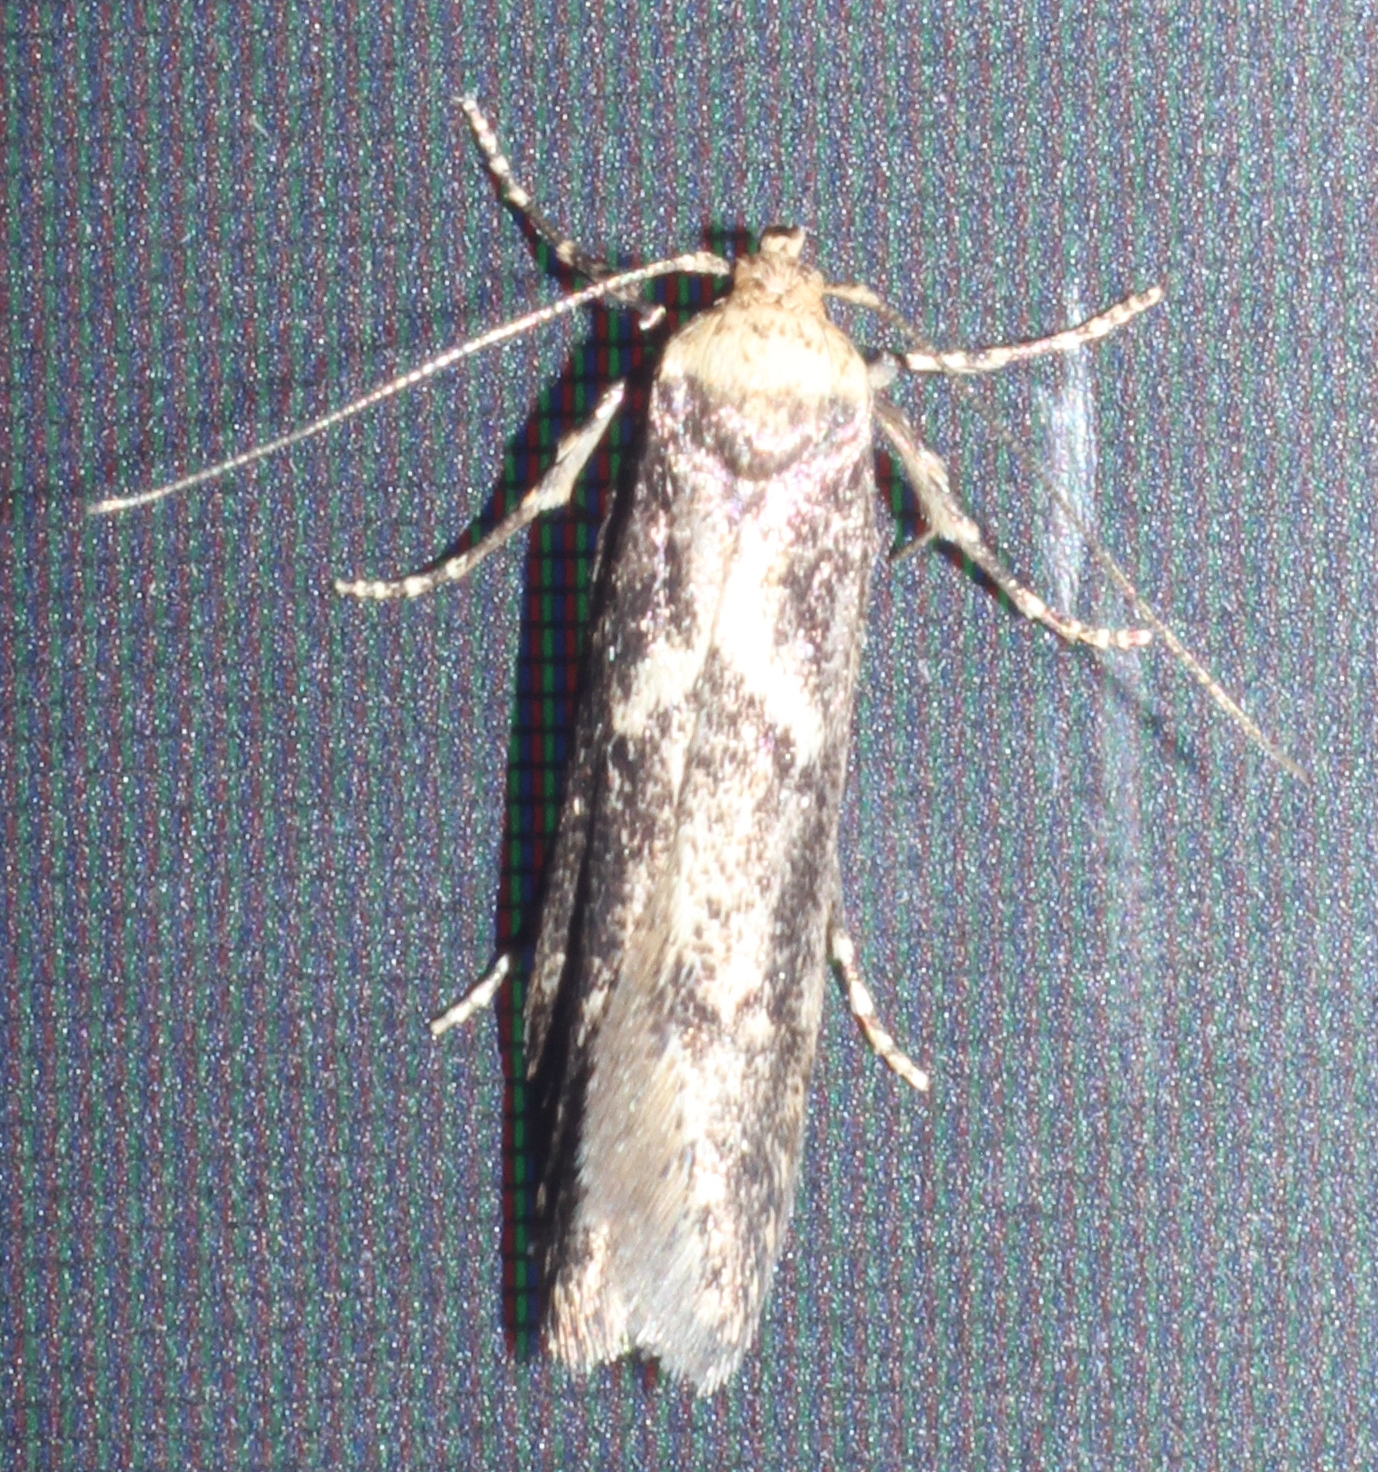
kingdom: Animalia
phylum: Arthropoda
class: Insecta
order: Lepidoptera
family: Blastobasidae
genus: Blastobasis
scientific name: Blastobasis adustella
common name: Dingy dowd
